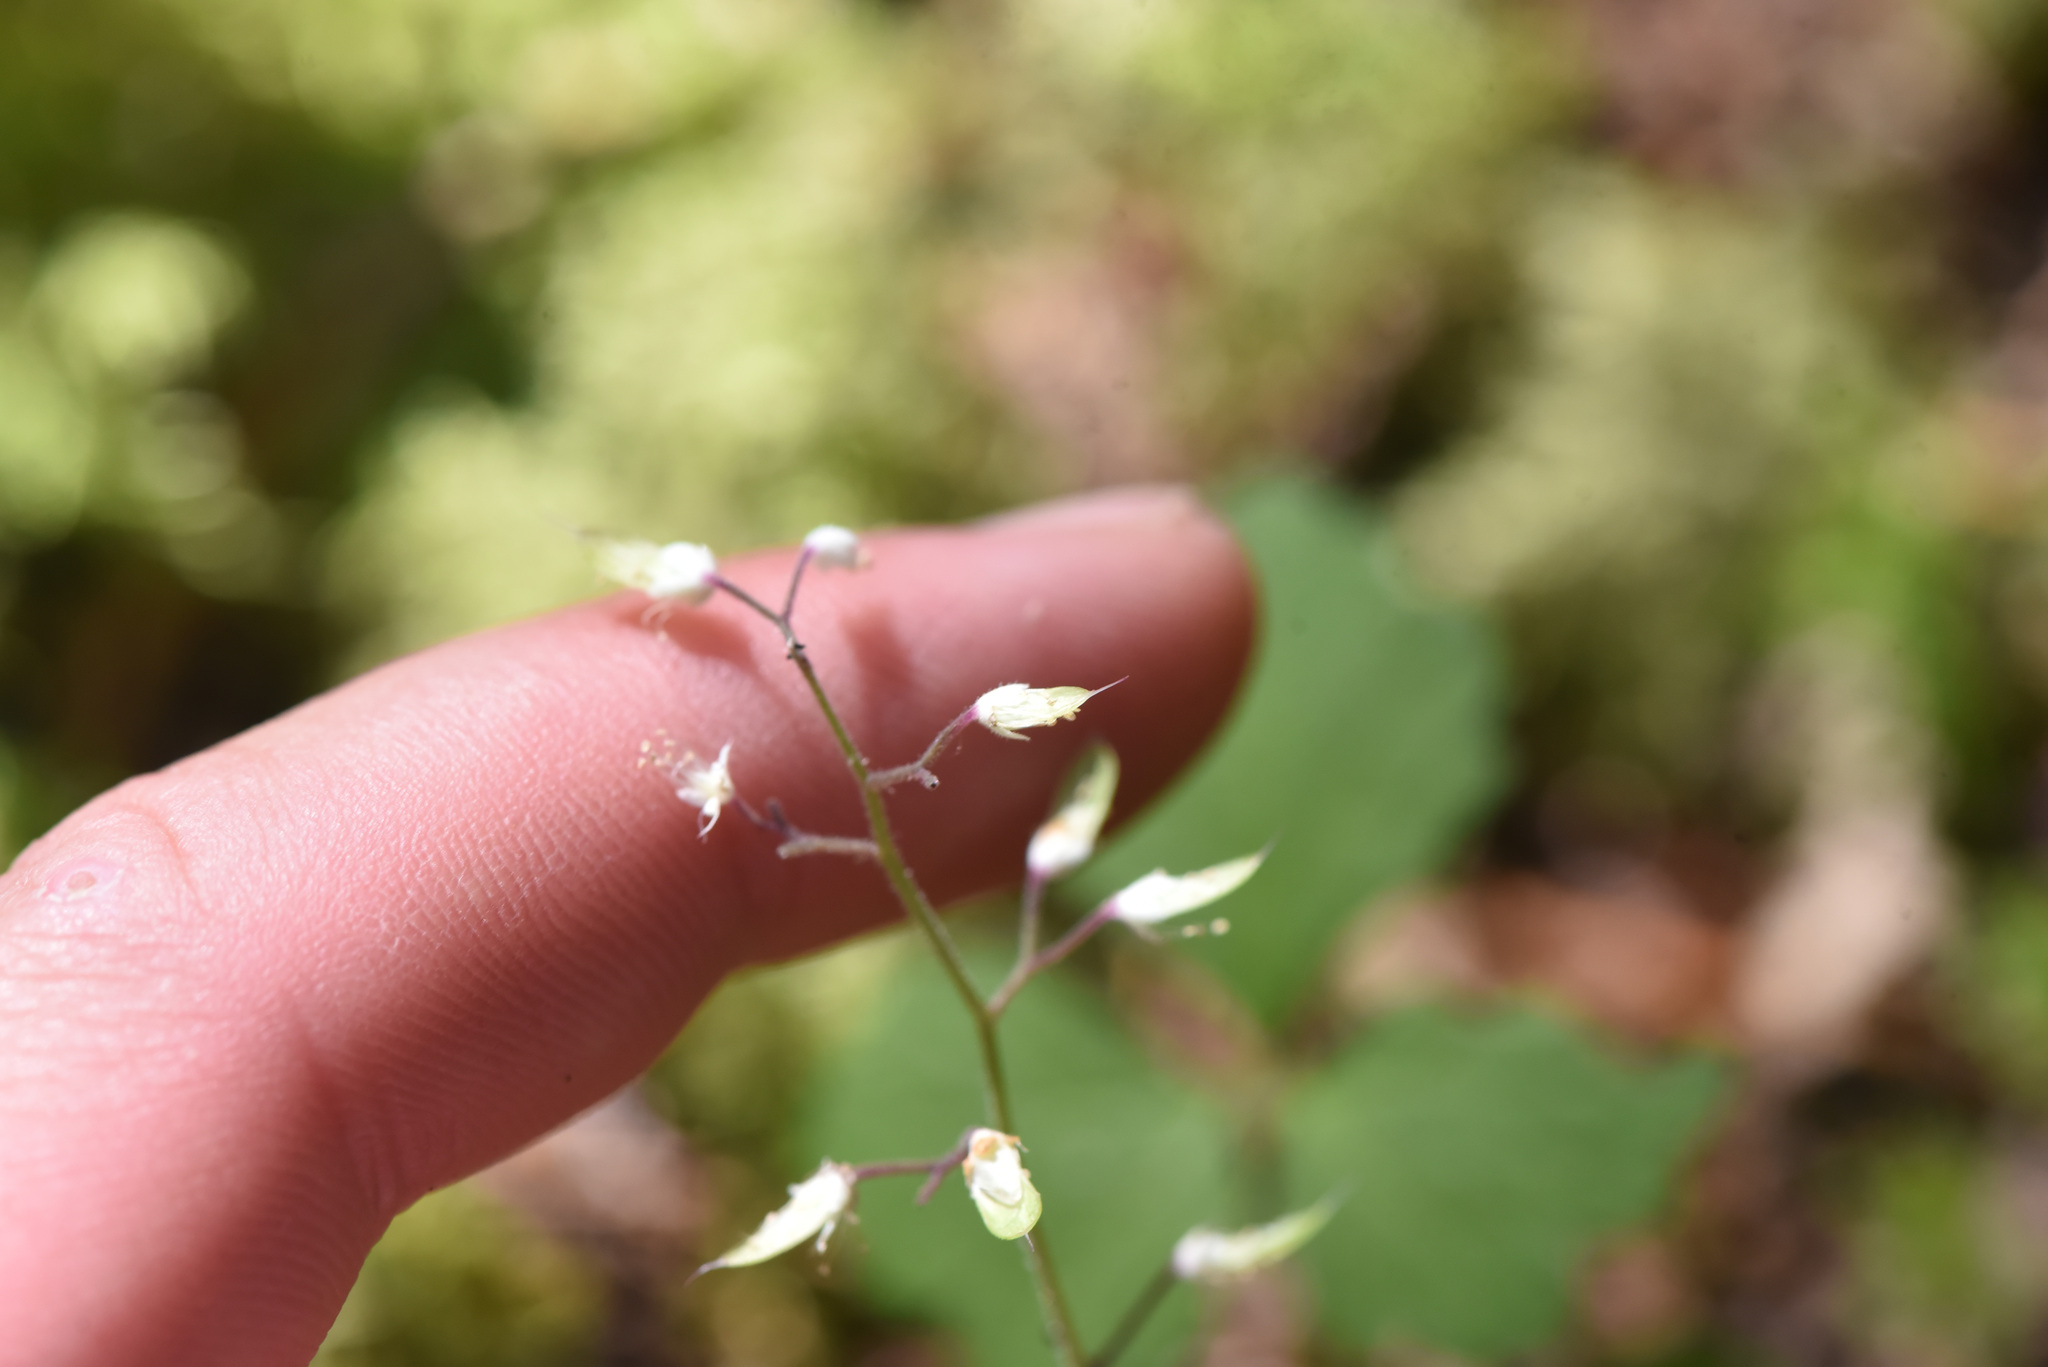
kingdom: Plantae
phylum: Tracheophyta
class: Magnoliopsida
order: Saxifragales
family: Saxifragaceae
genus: Tiarella
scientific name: Tiarella trifoliata
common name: Sugar-scoop
